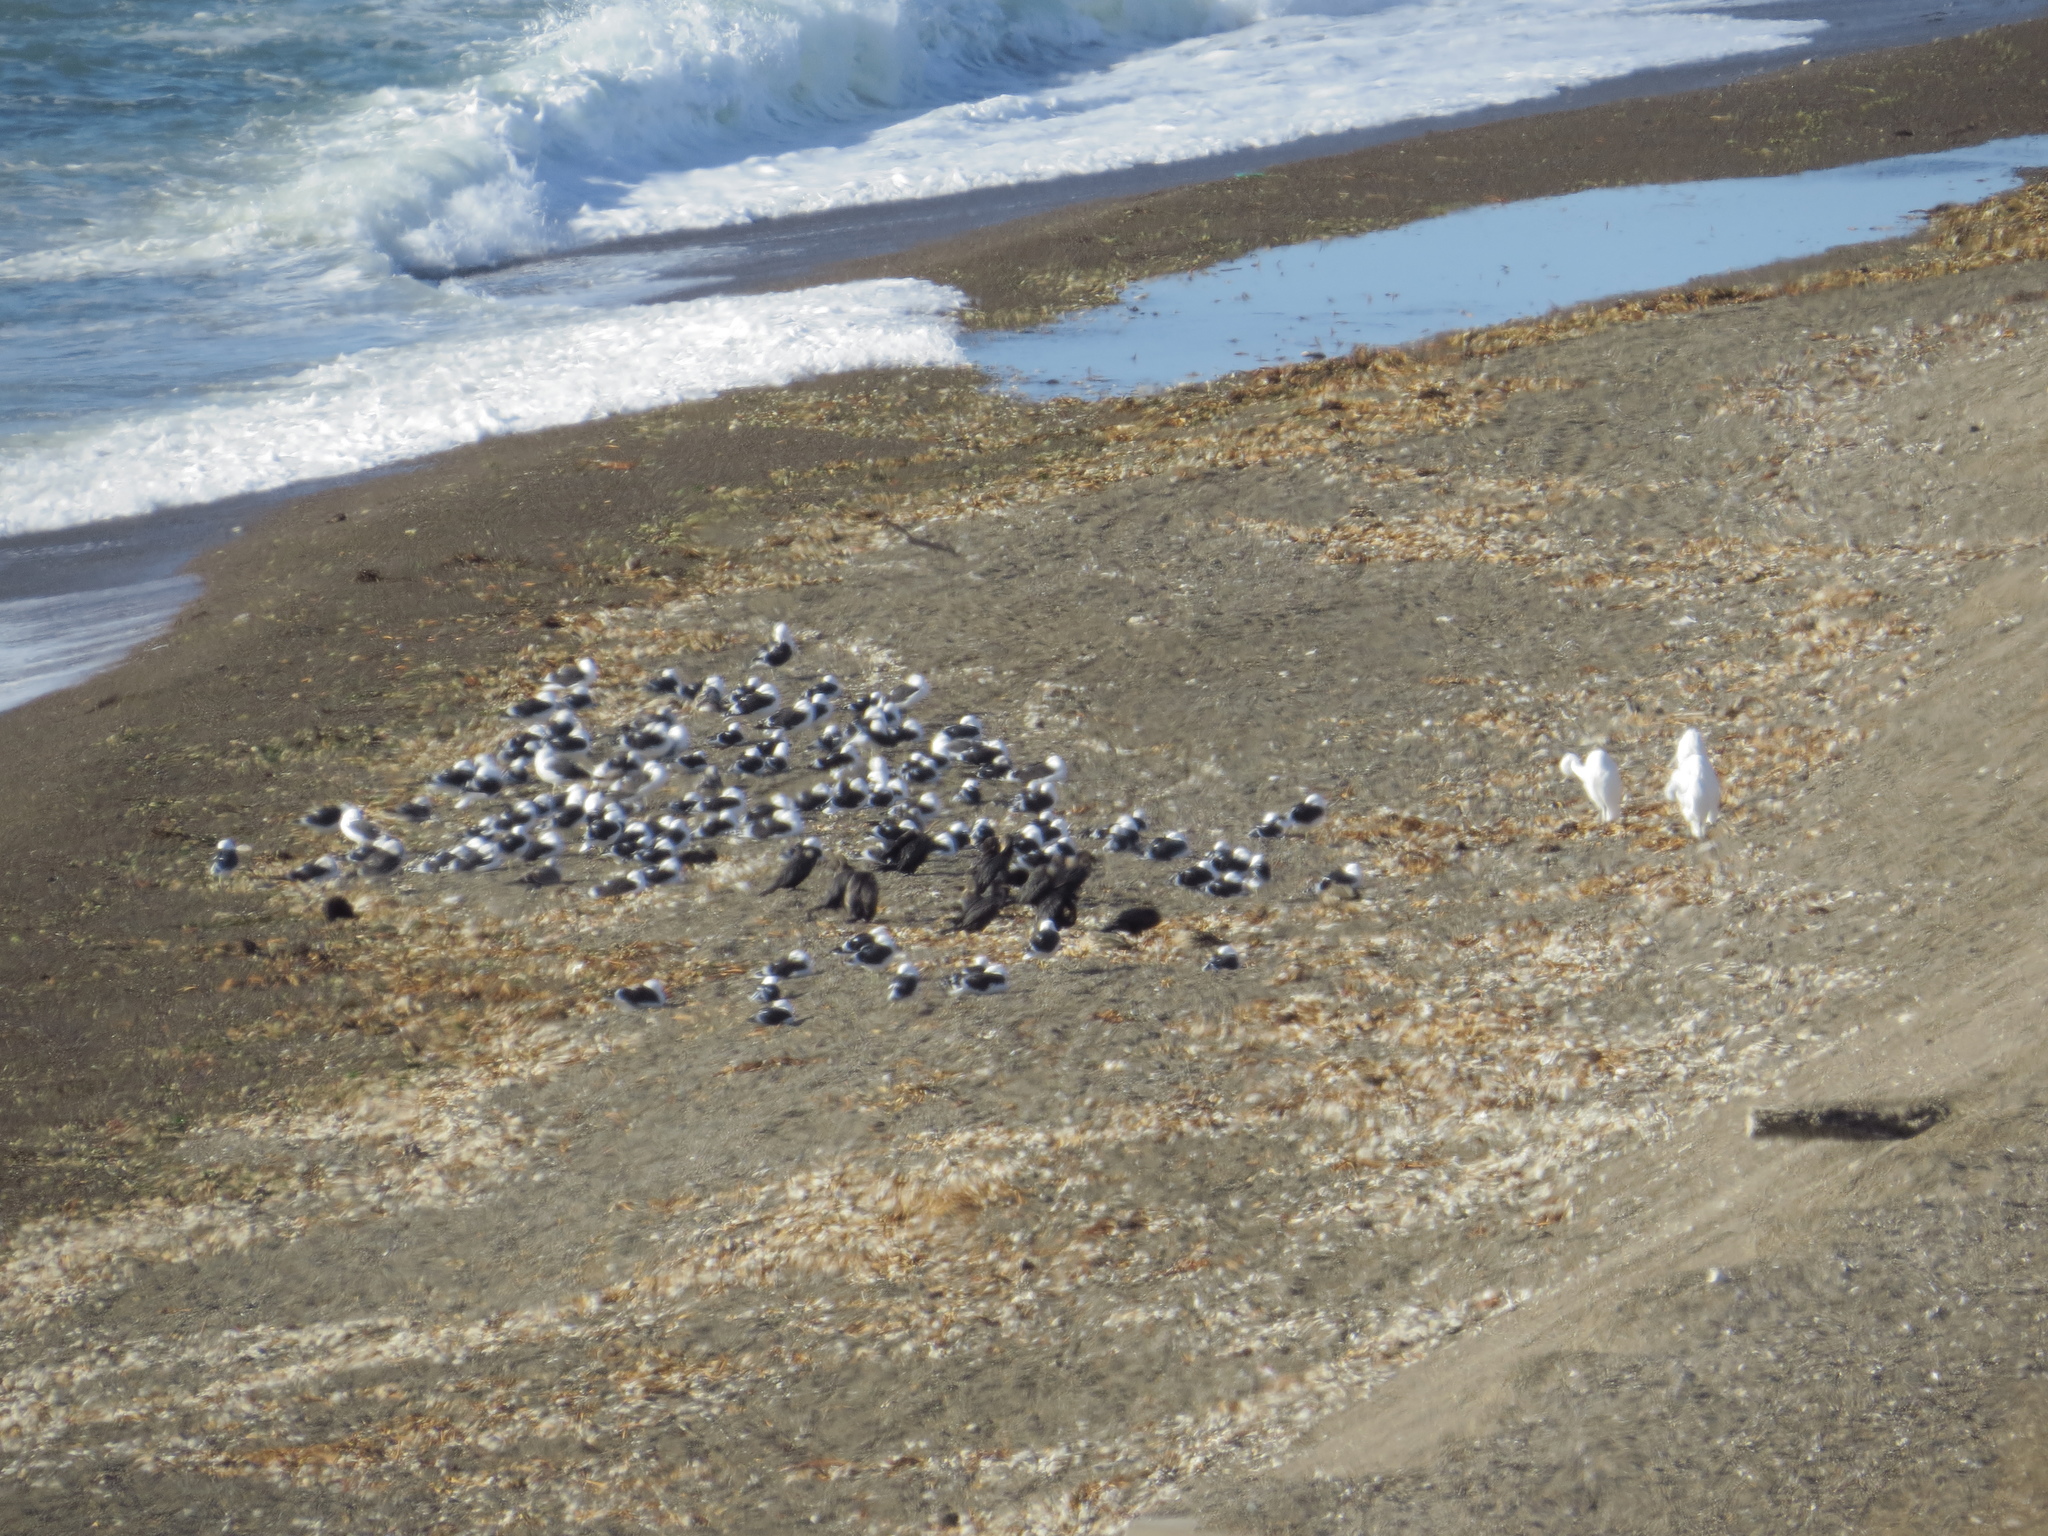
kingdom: Animalia
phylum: Chordata
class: Aves
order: Pelecaniformes
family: Ardeidae
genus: Ardea
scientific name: Ardea alba
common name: Great egret
